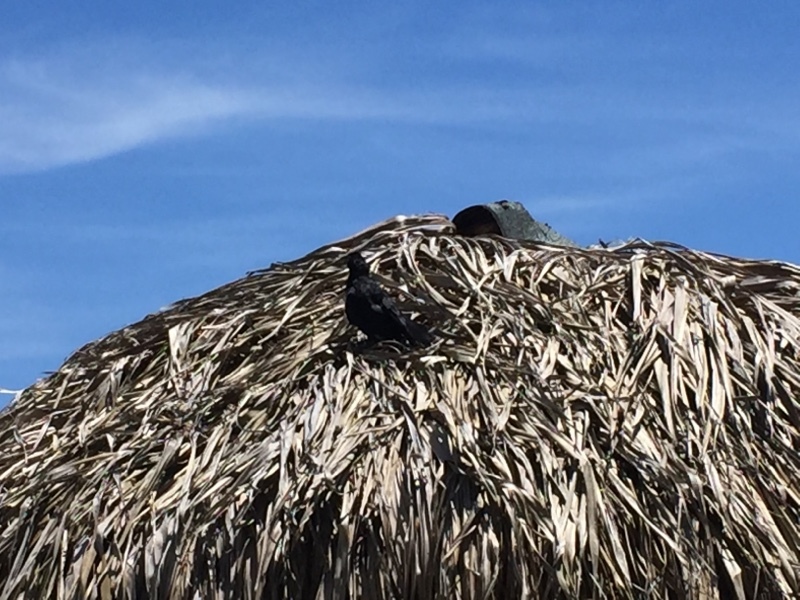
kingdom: Animalia
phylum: Chordata
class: Aves
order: Passeriformes
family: Icteridae
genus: Quiscalus
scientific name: Quiscalus niger
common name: Greater antillean grackle
